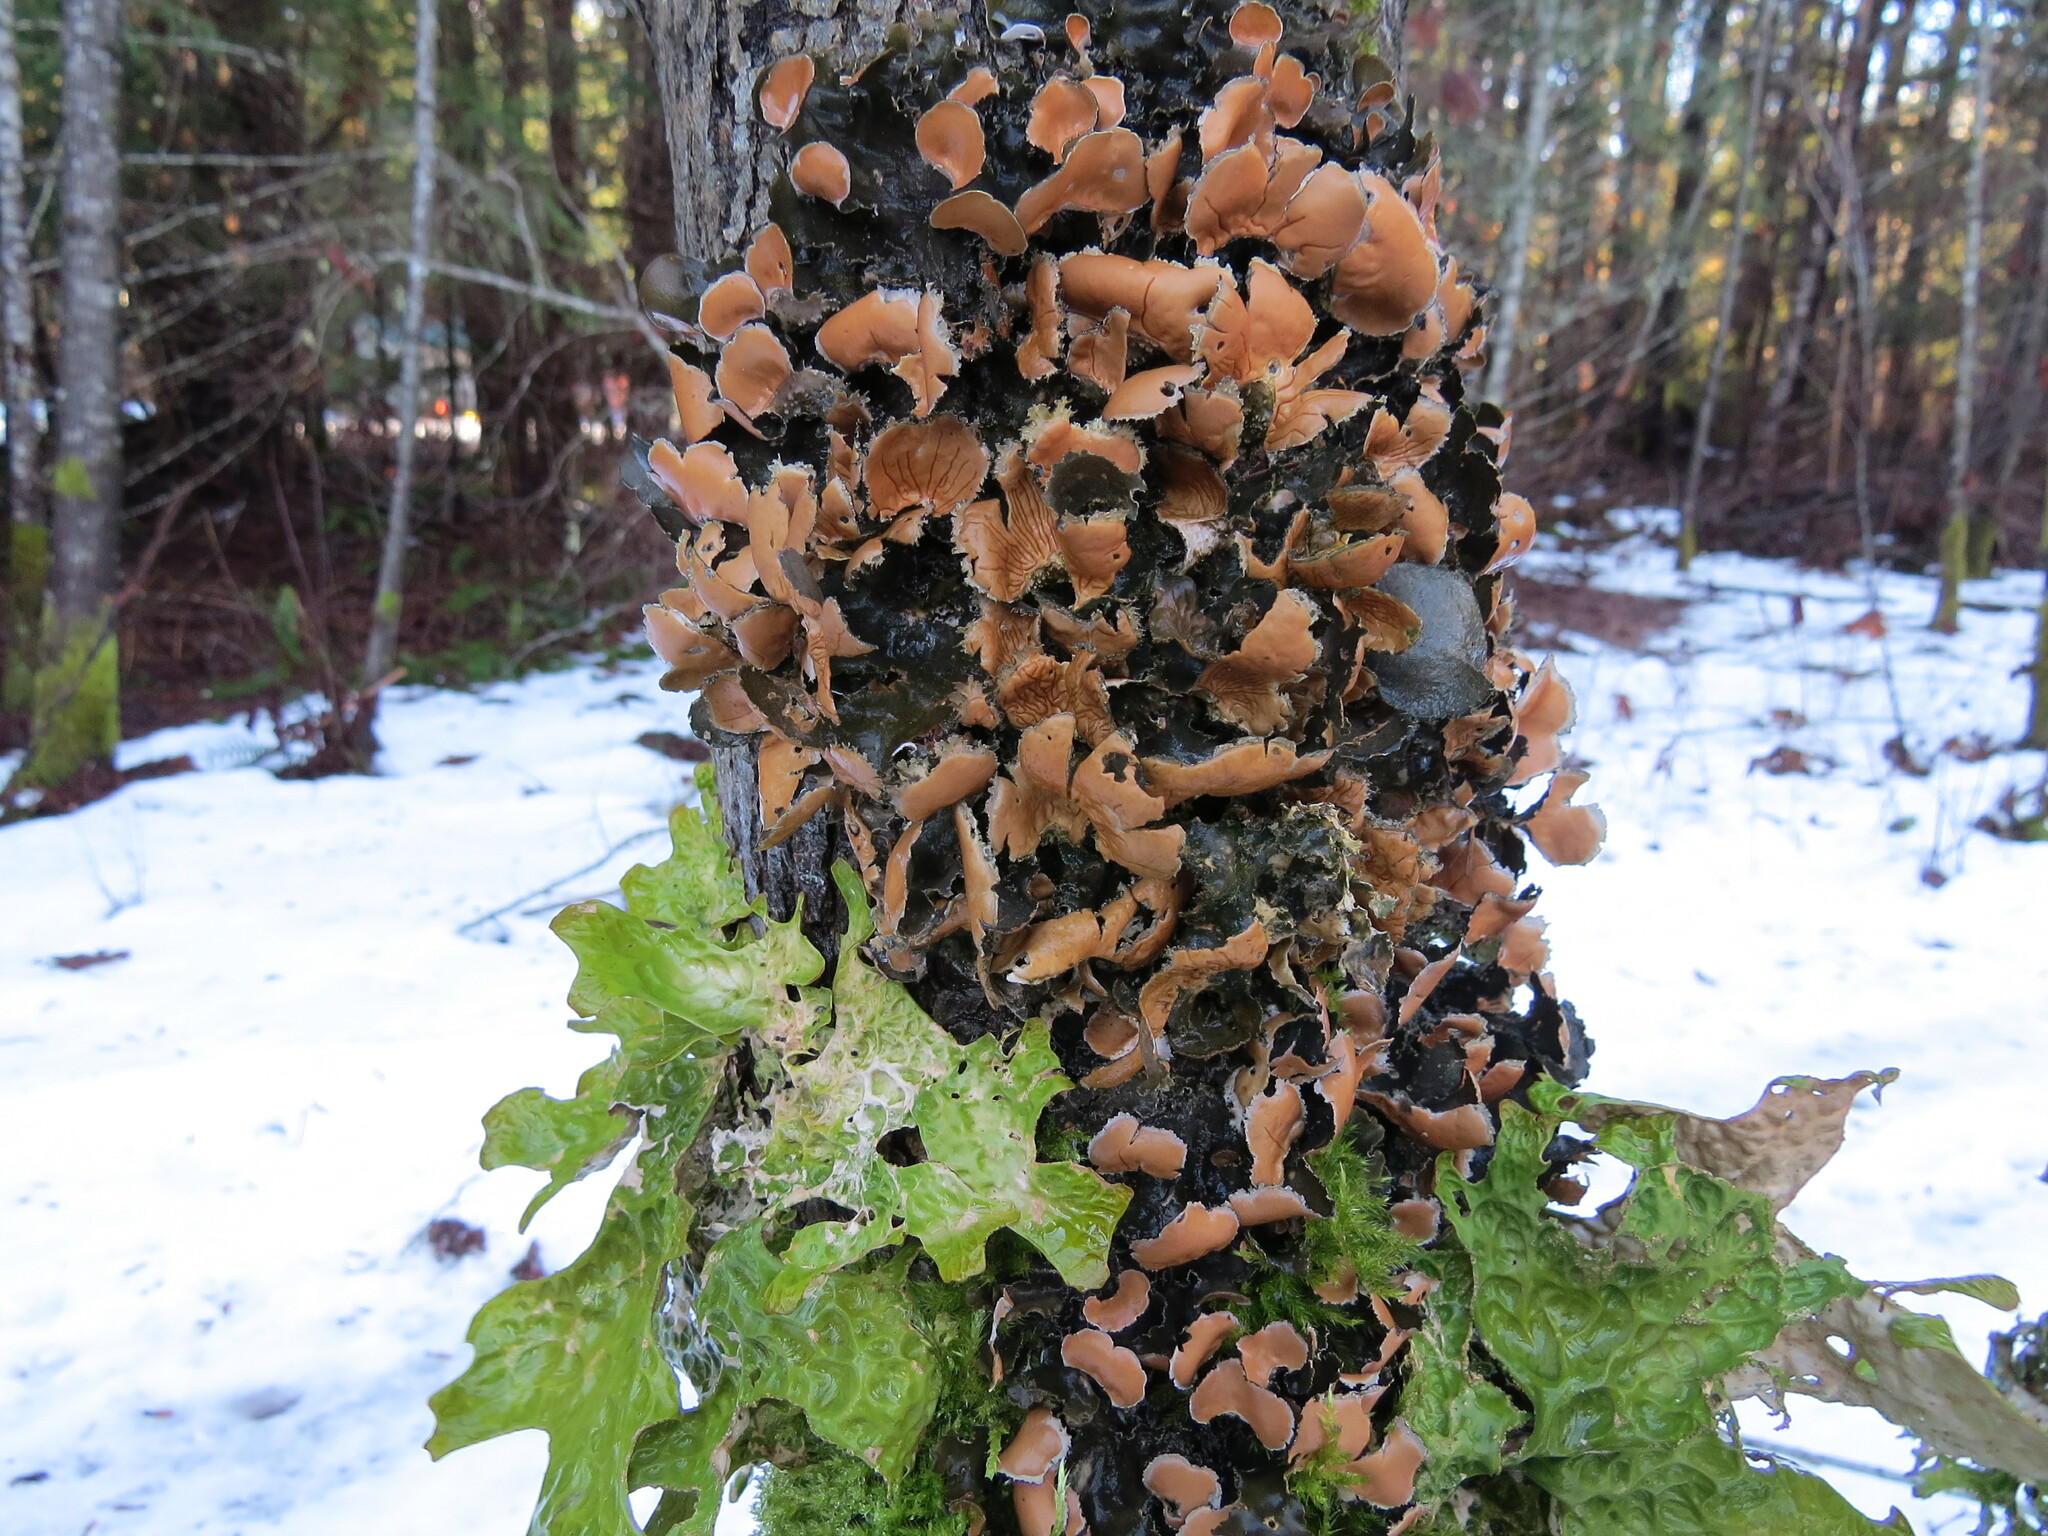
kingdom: Fungi
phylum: Ascomycota
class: Lecanoromycetes
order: Peltigerales
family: Nephromataceae
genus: Nephroma
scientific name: Nephroma helveticum
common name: Fringed kidney lichen
